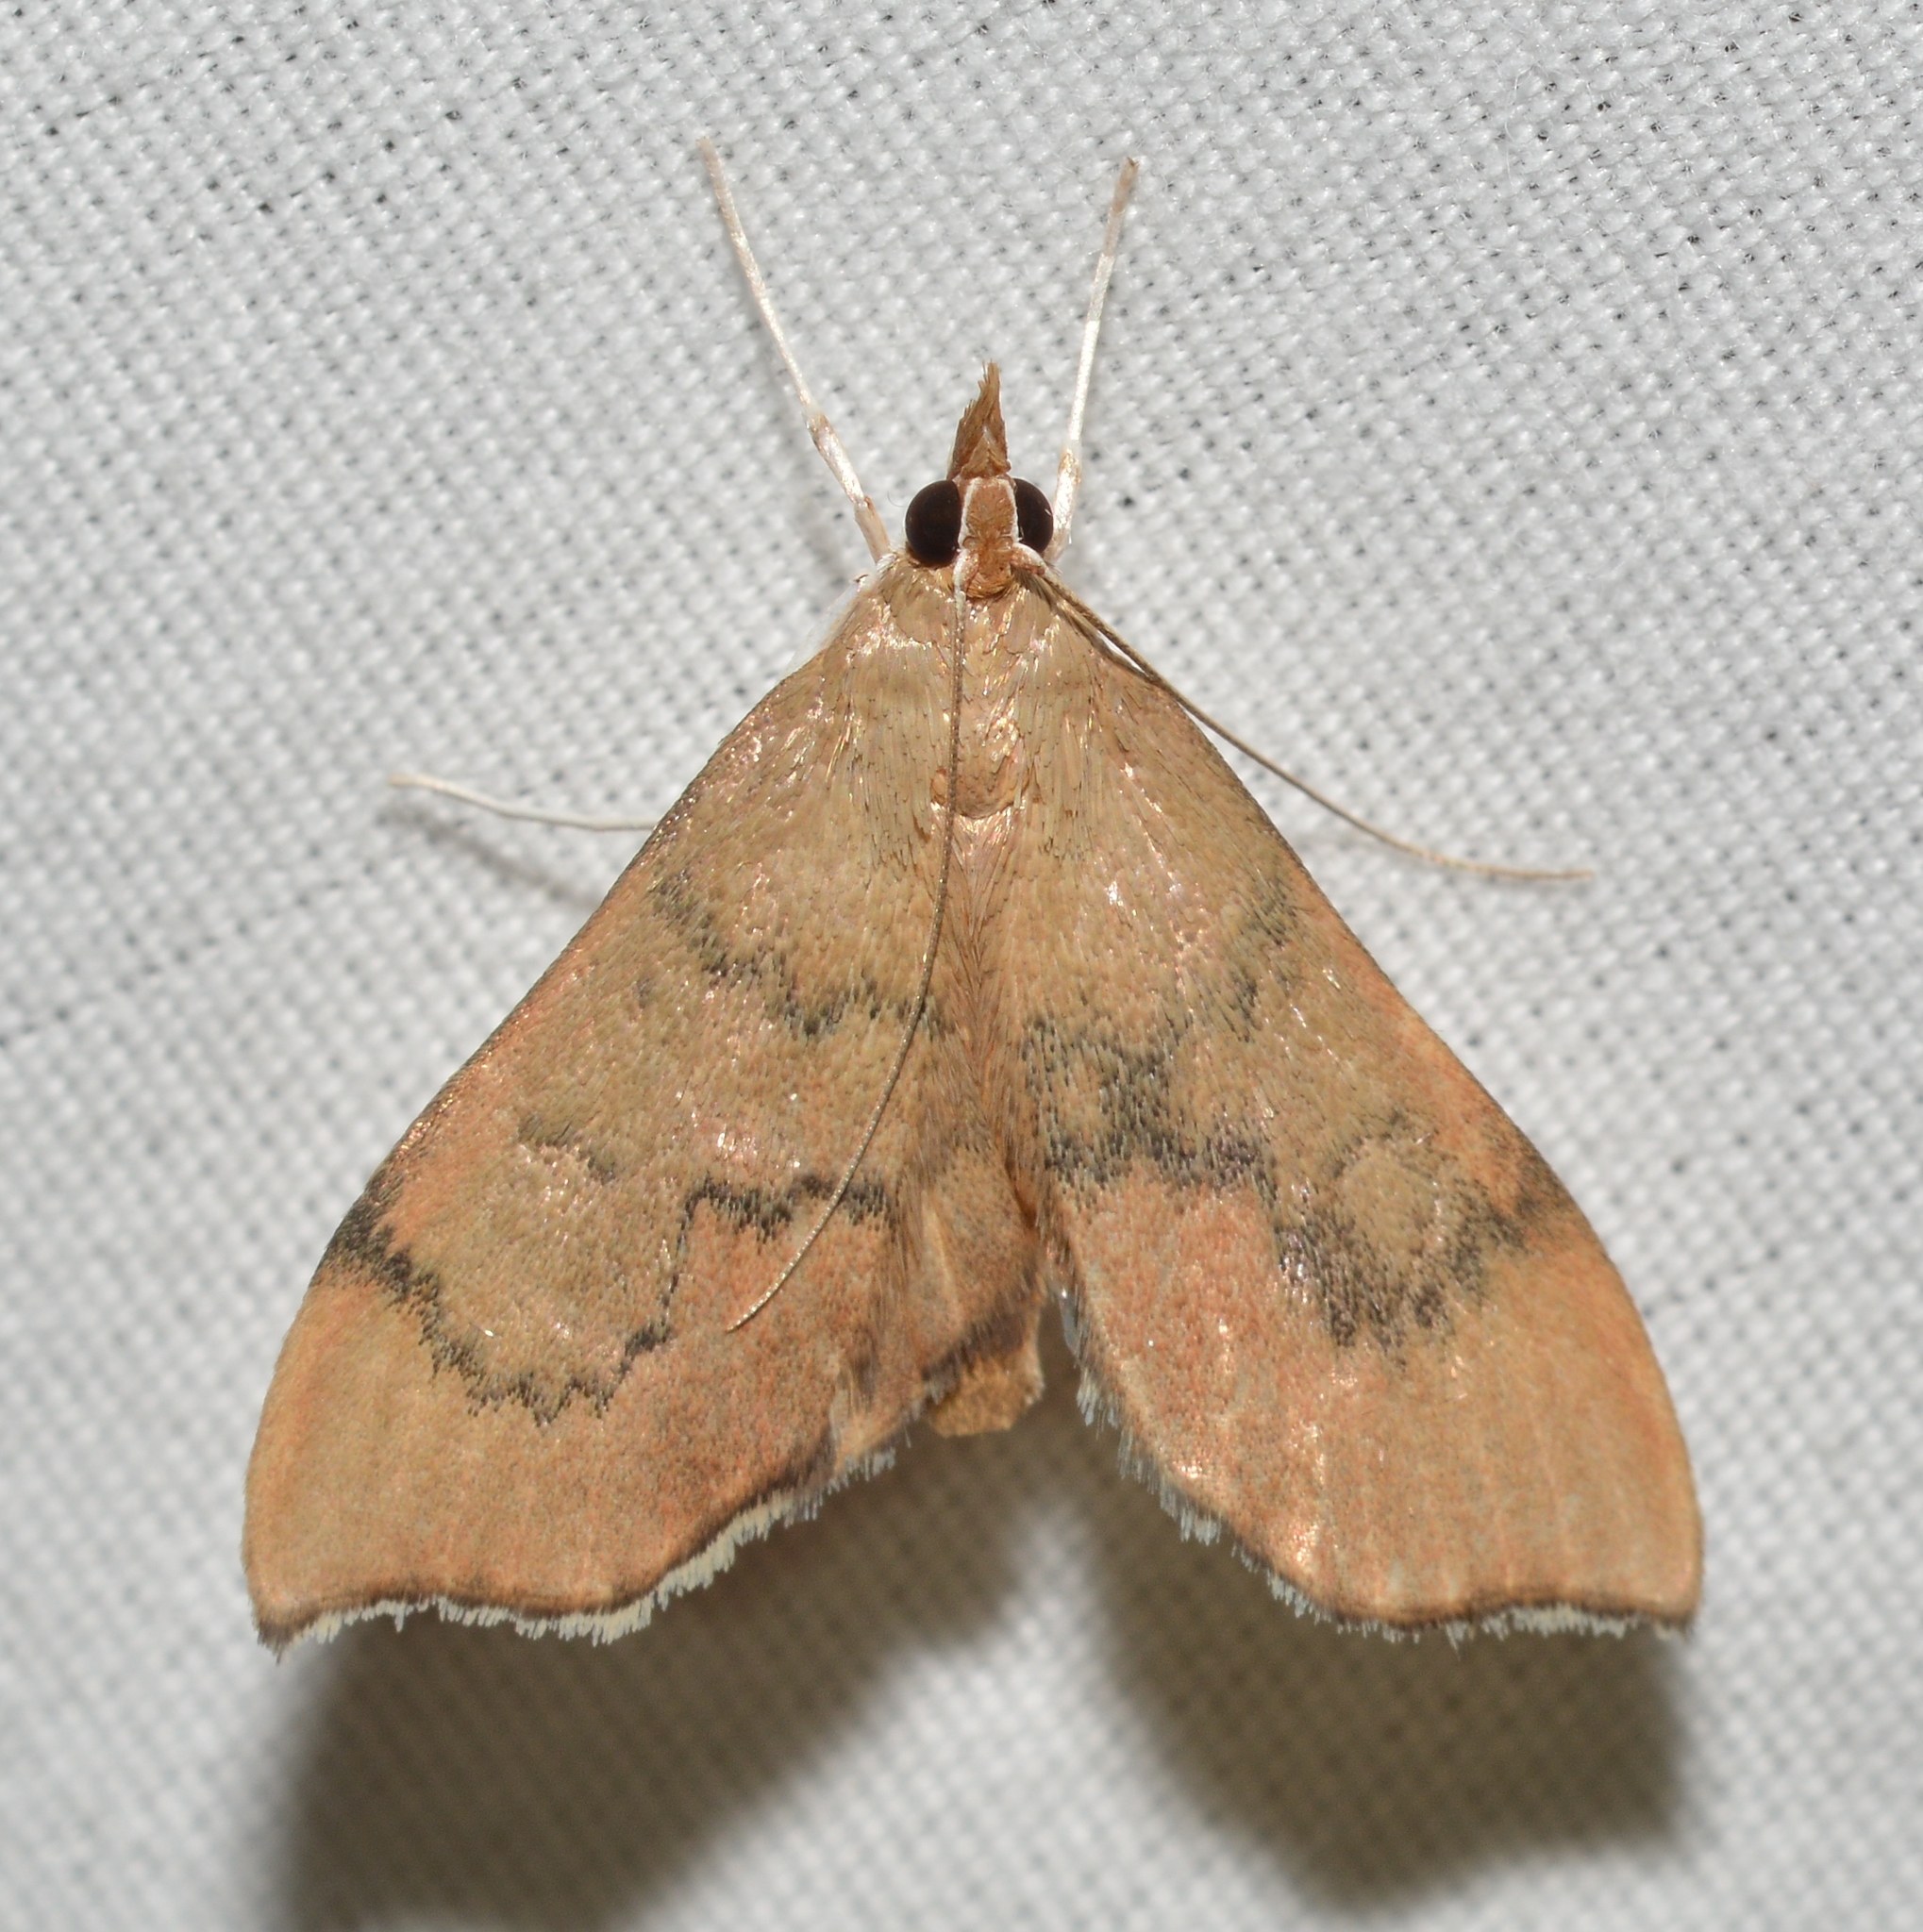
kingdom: Animalia
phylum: Arthropoda
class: Insecta
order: Lepidoptera
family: Crambidae
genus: Sericoplaga
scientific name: Sericoplaga externalis
